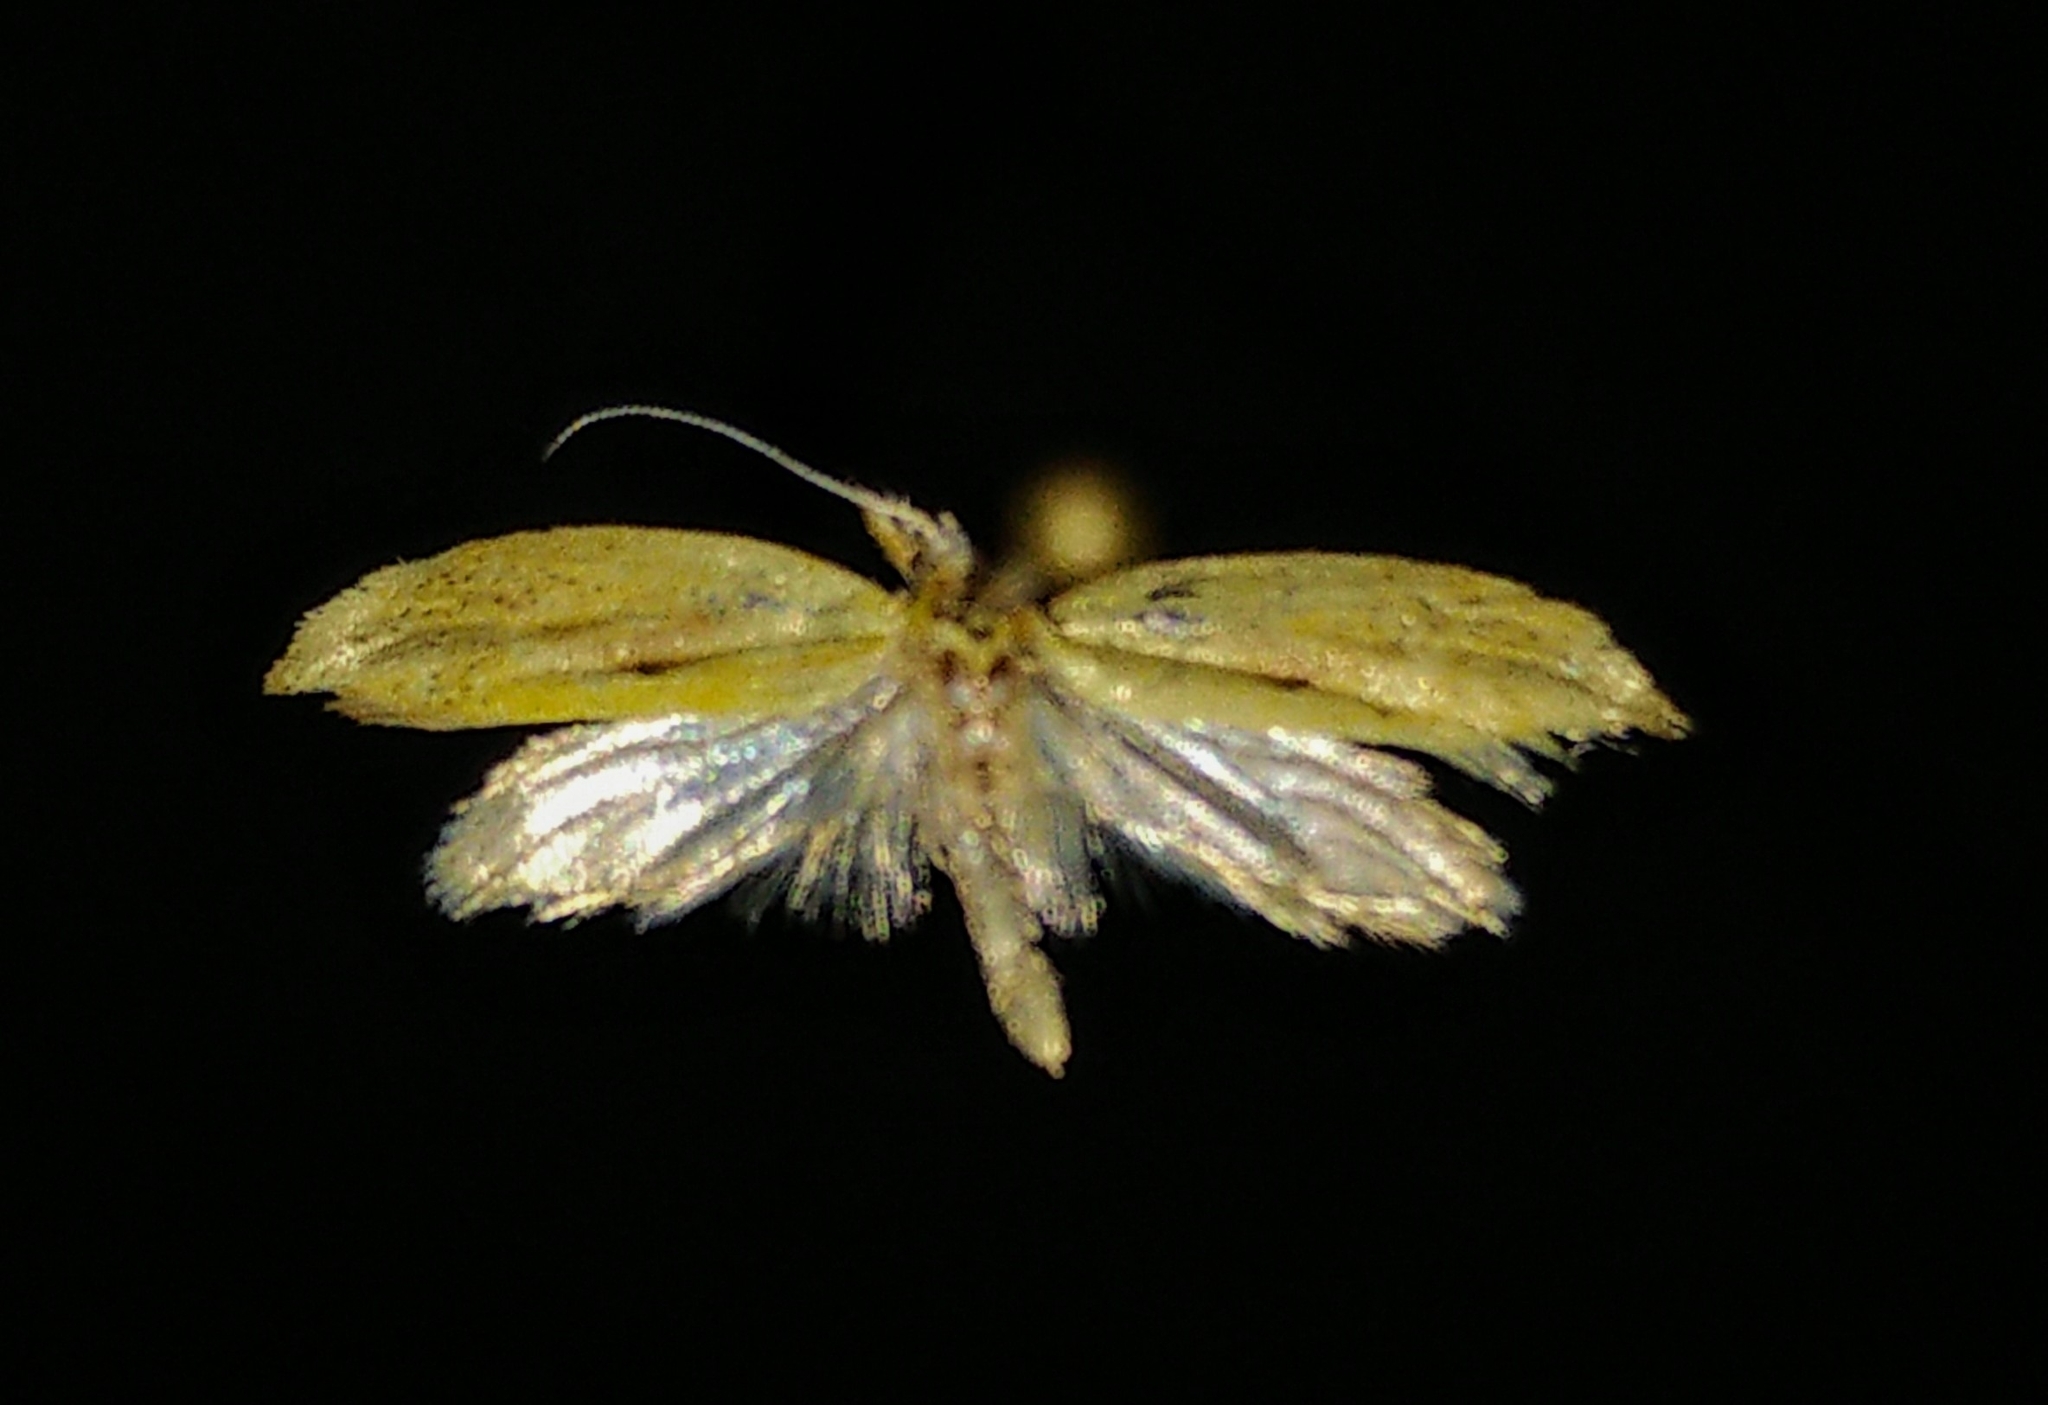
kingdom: Animalia
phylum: Arthropoda
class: Insecta
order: Lepidoptera
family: Ypsolophidae
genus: Ypsolopha
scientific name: Ypsolopha canariella
